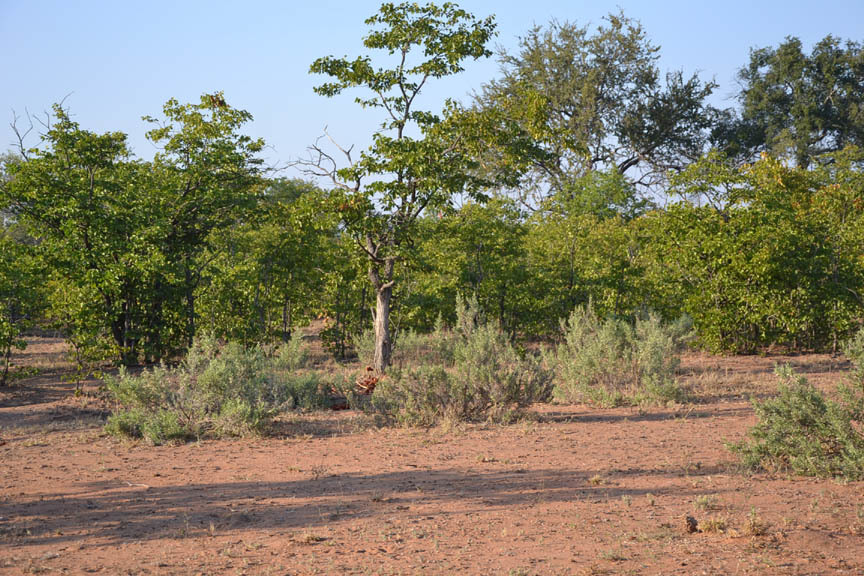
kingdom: Plantae
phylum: Tracheophyta
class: Magnoliopsida
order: Asterales
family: Asteraceae
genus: Pechuel-loeschea
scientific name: Pechuel-loeschea leubnitziae
